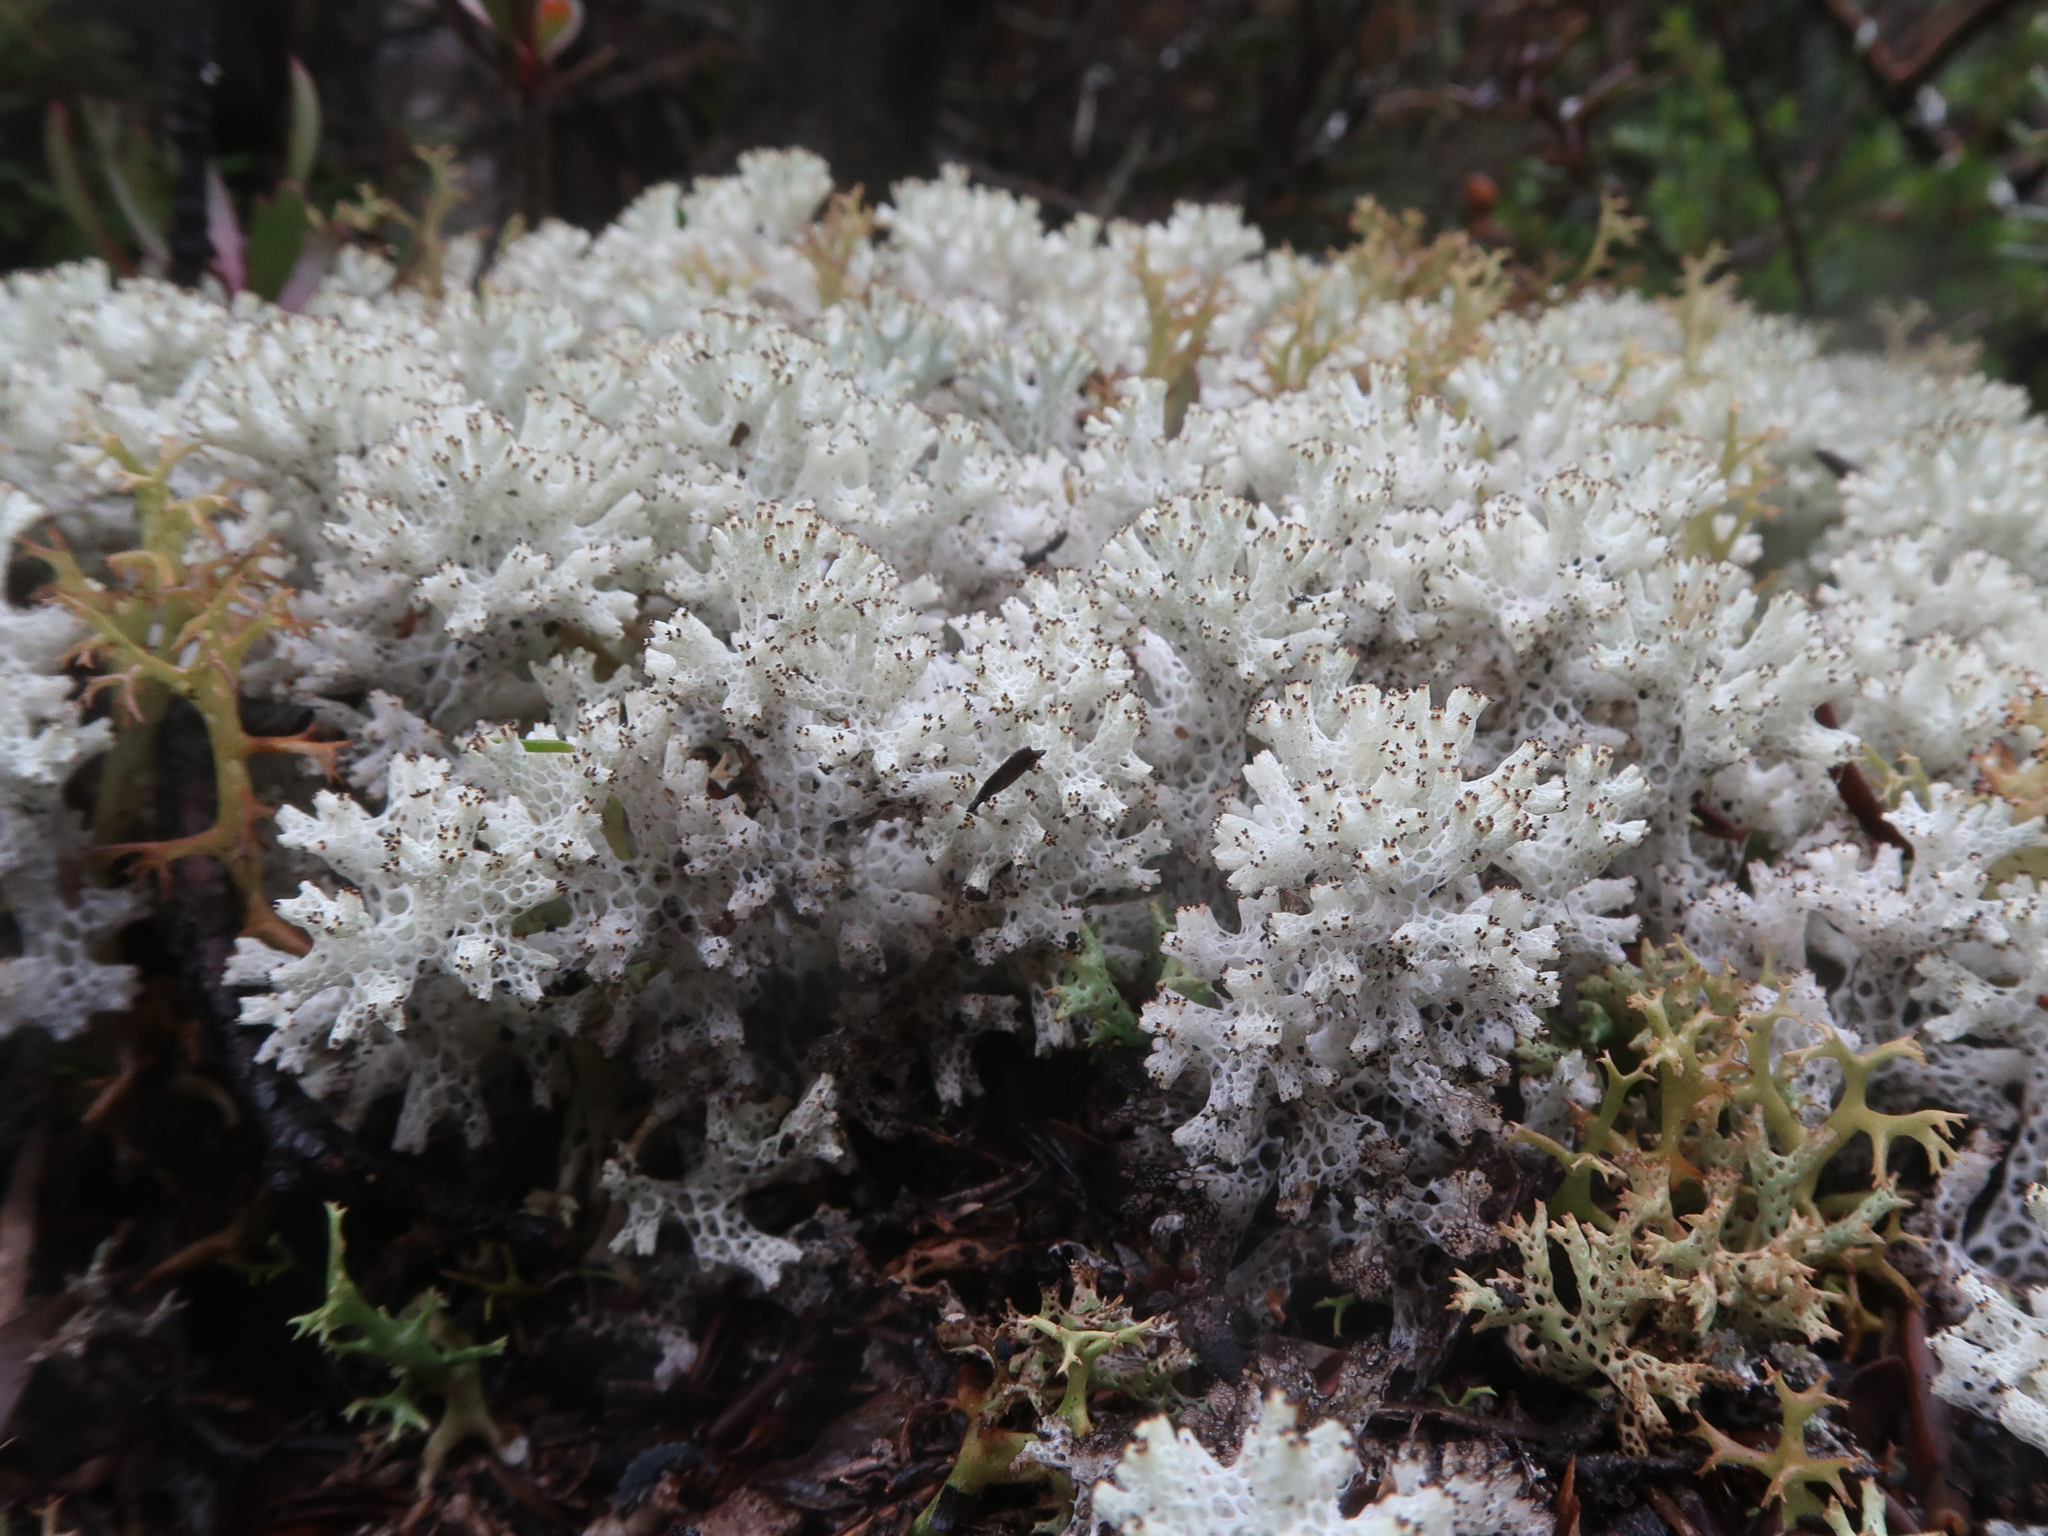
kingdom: Fungi
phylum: Ascomycota
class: Lecanoromycetes
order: Lecanorales
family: Cladoniaceae
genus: Pulchrocladia
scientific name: Pulchrocladia retipora
